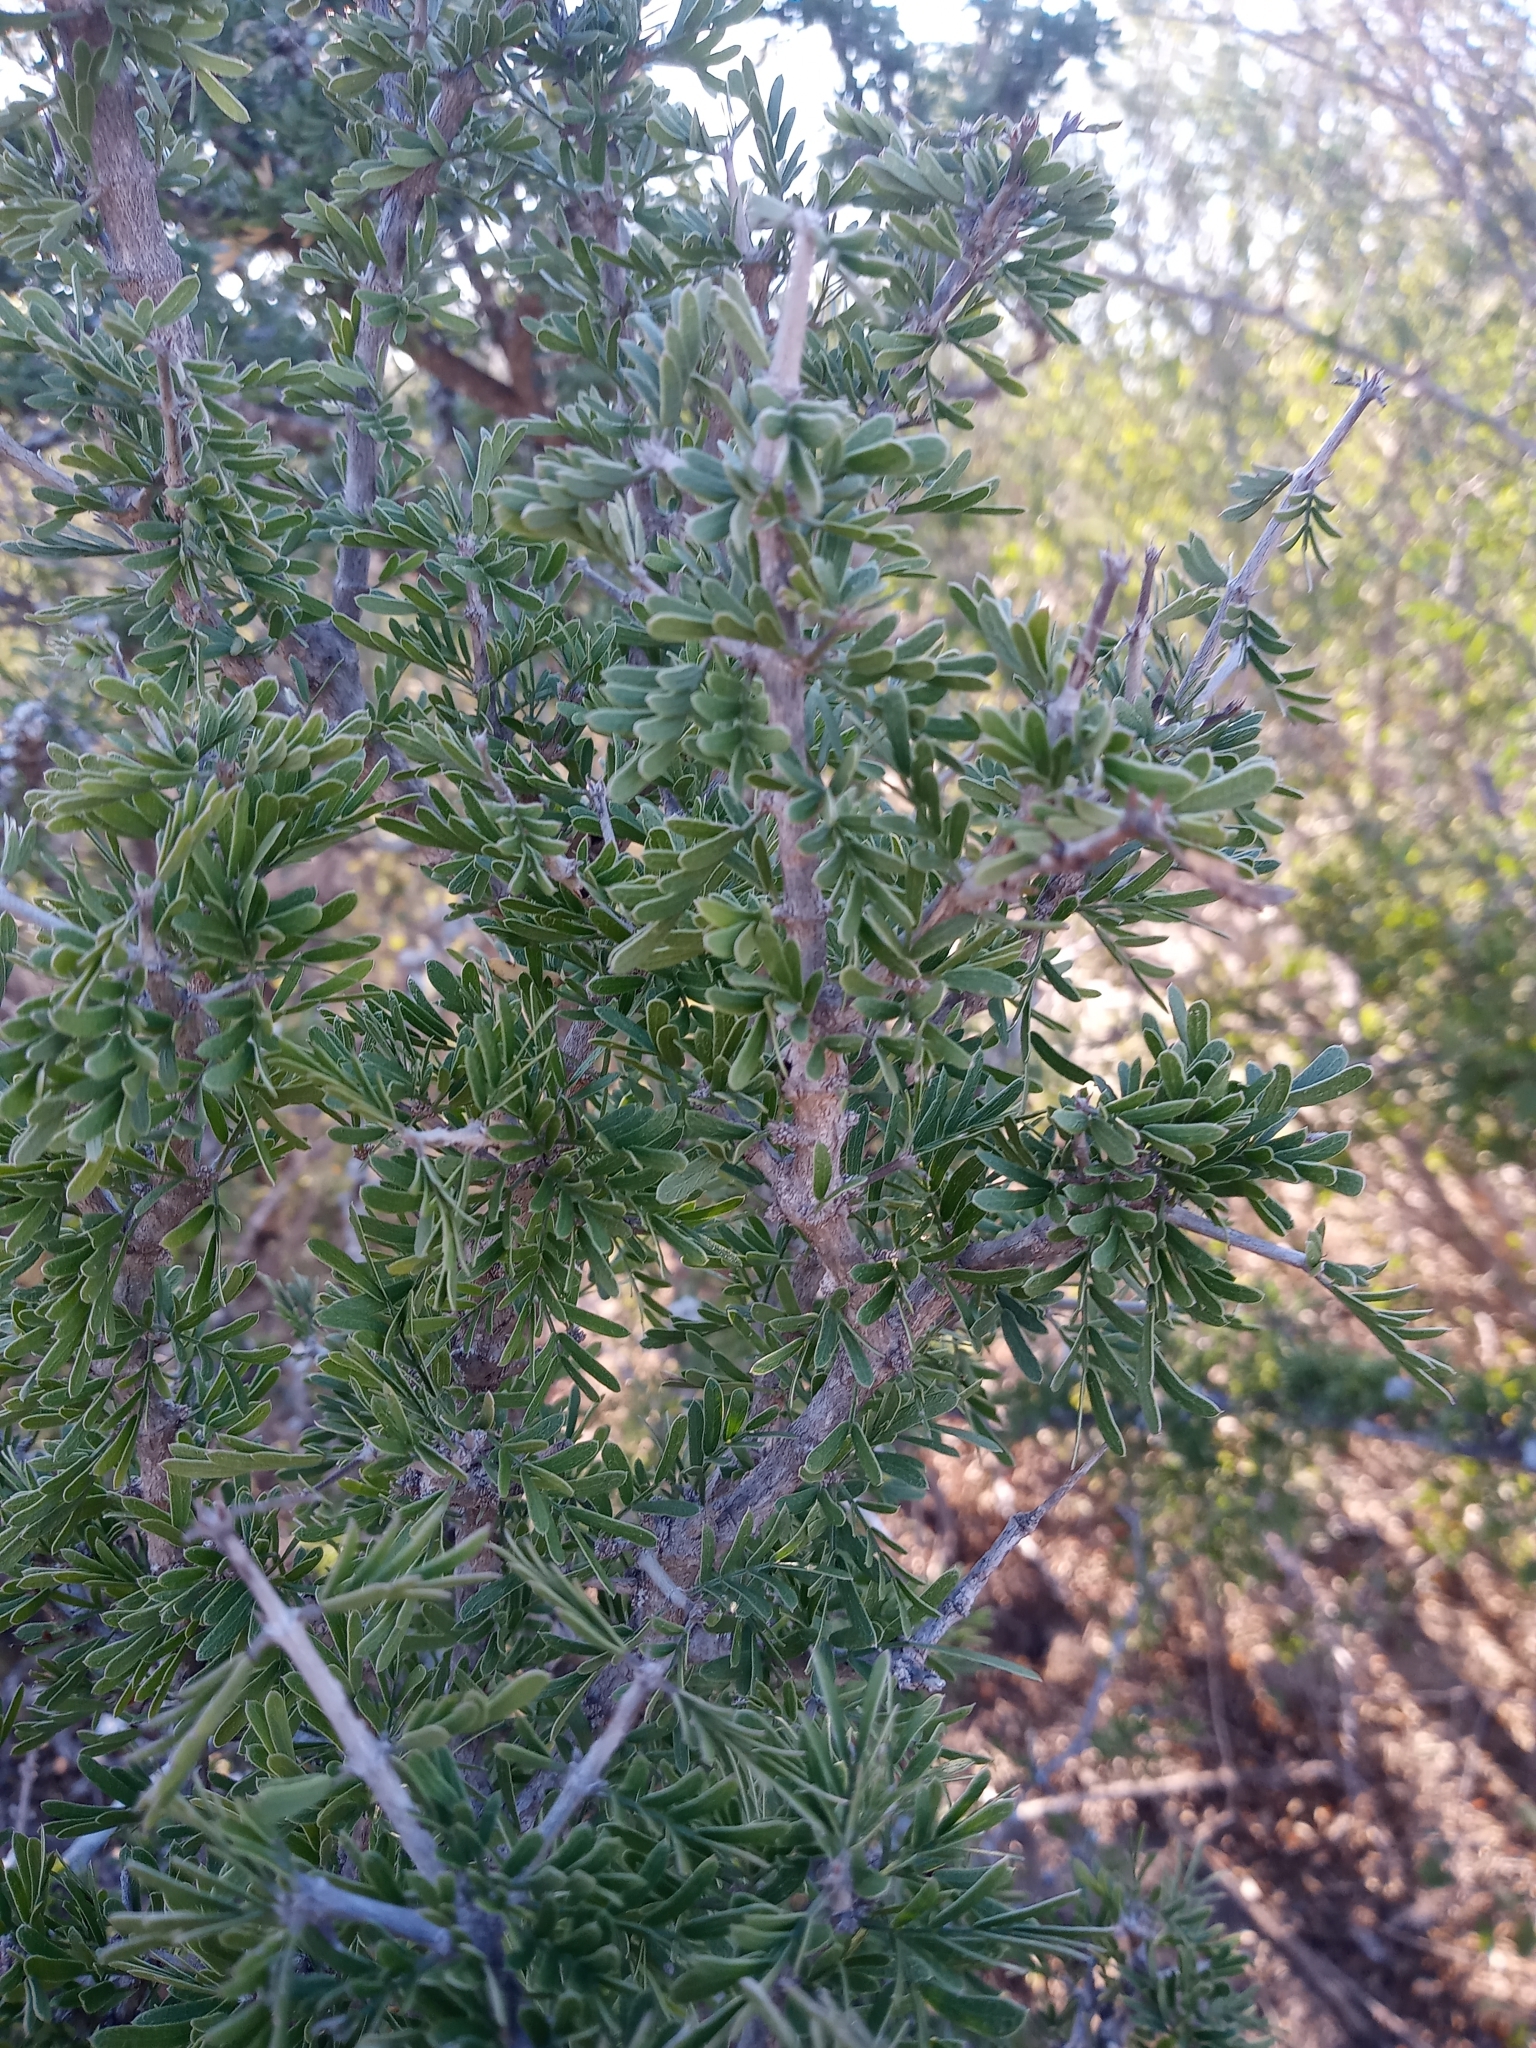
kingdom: Plantae
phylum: Tracheophyta
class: Magnoliopsida
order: Zygophyllales
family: Zygophyllaceae
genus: Porlieria
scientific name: Porlieria angustifolia
